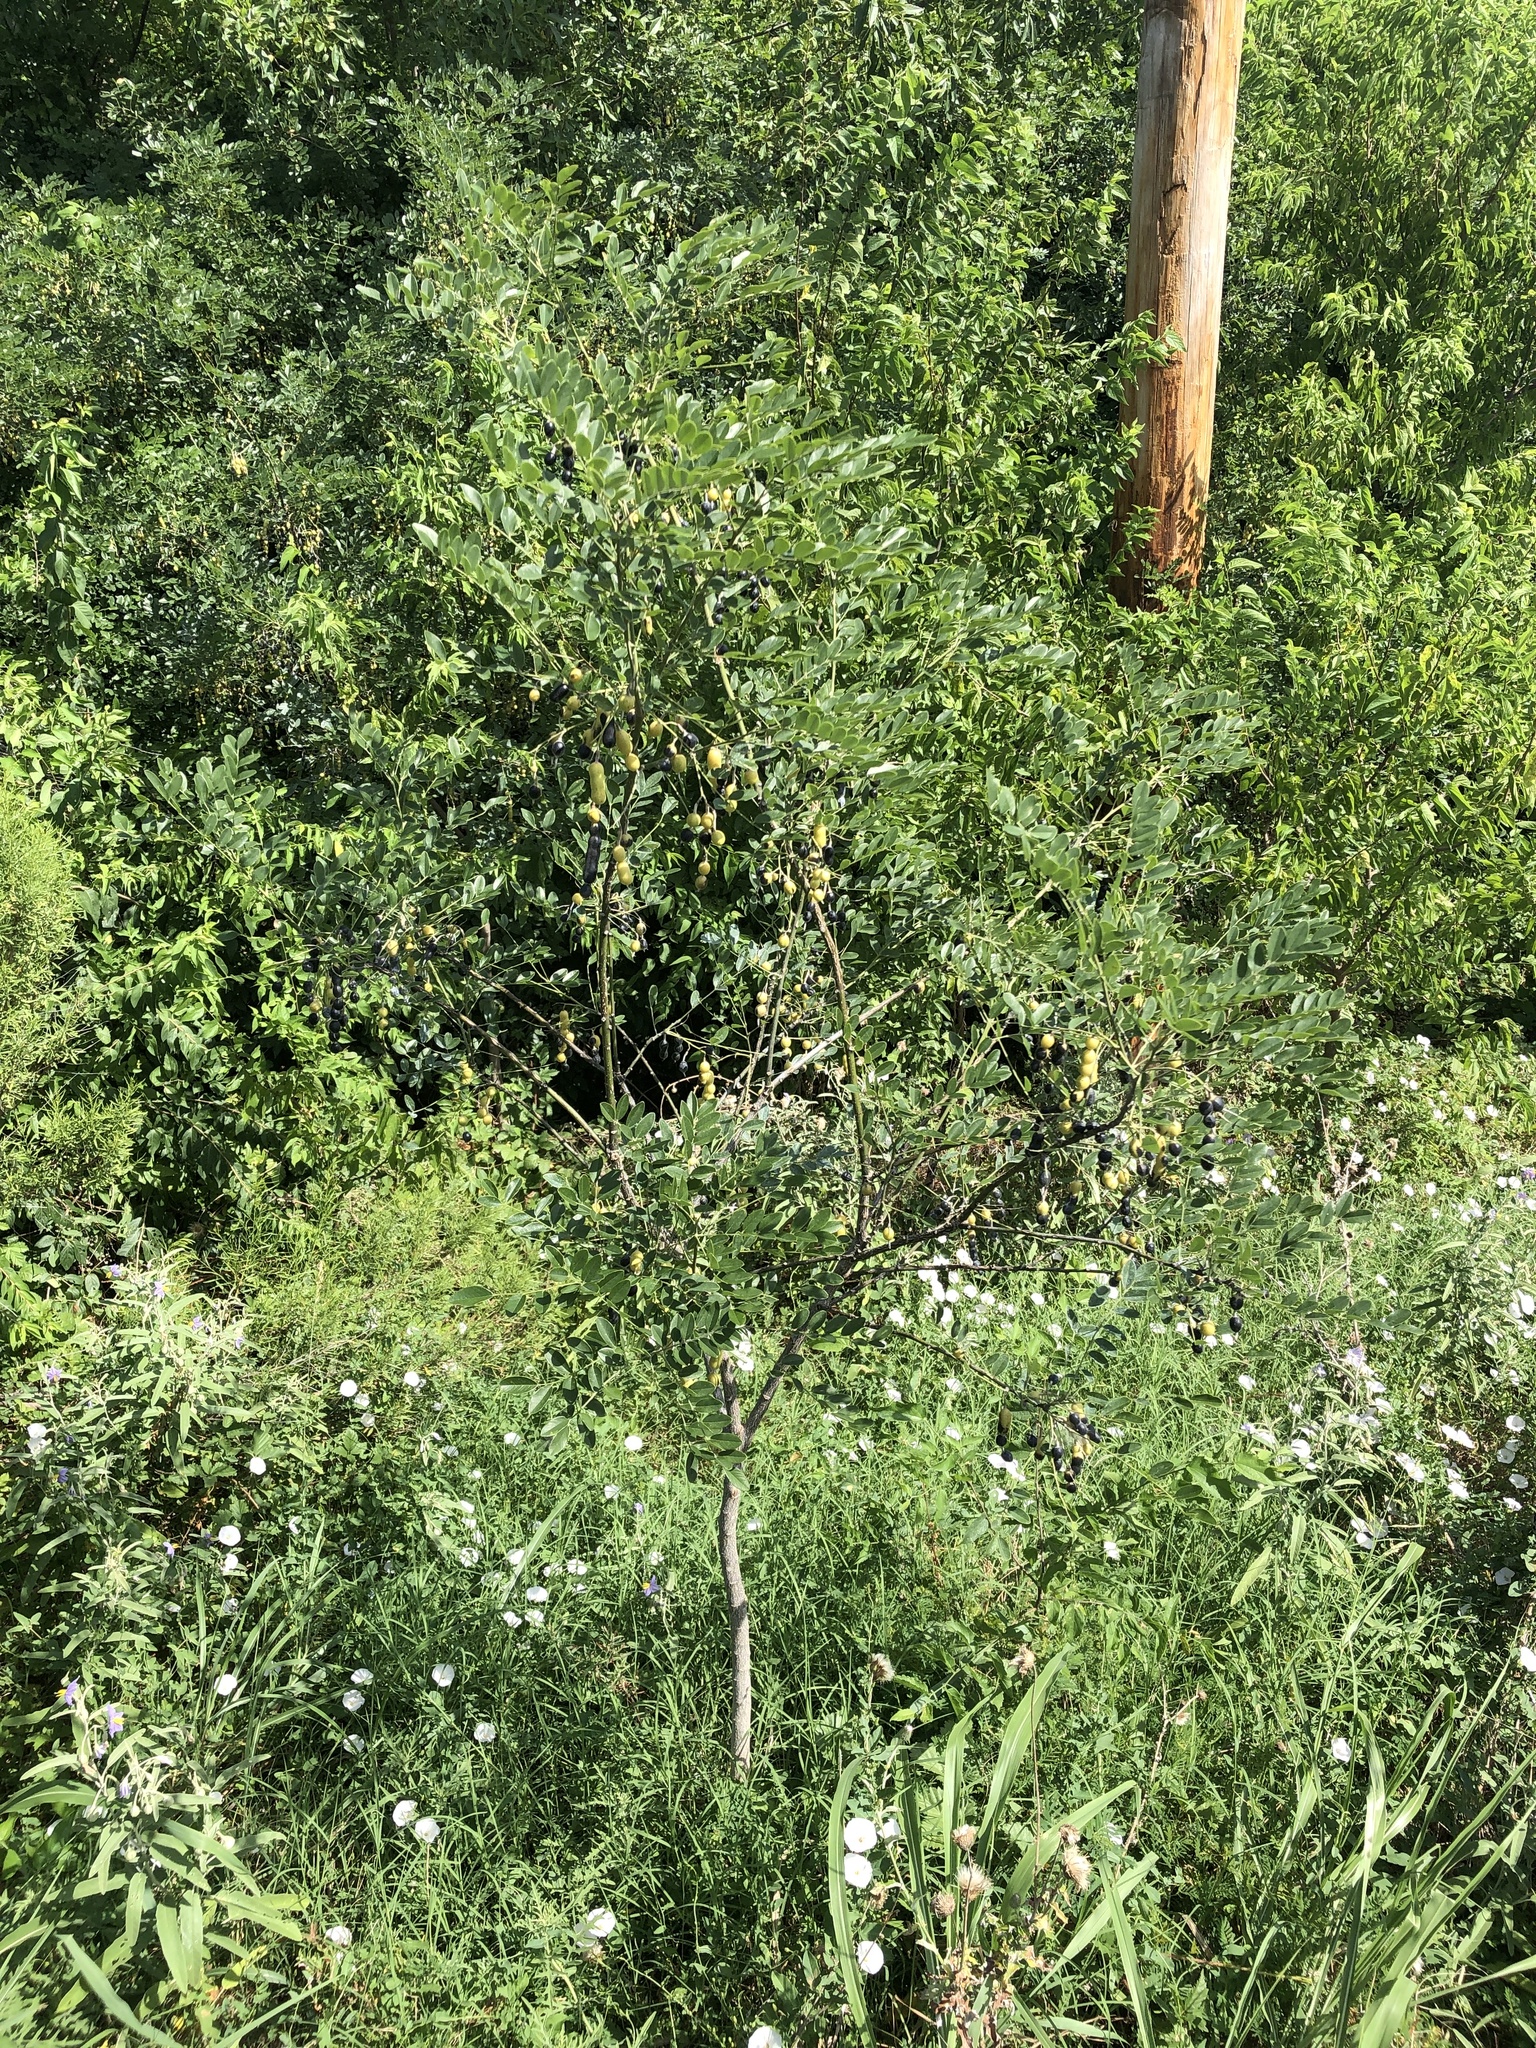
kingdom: Plantae
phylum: Tracheophyta
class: Magnoliopsida
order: Fabales
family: Fabaceae
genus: Styphnolobium
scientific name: Styphnolobium affine
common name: Texas sophora
